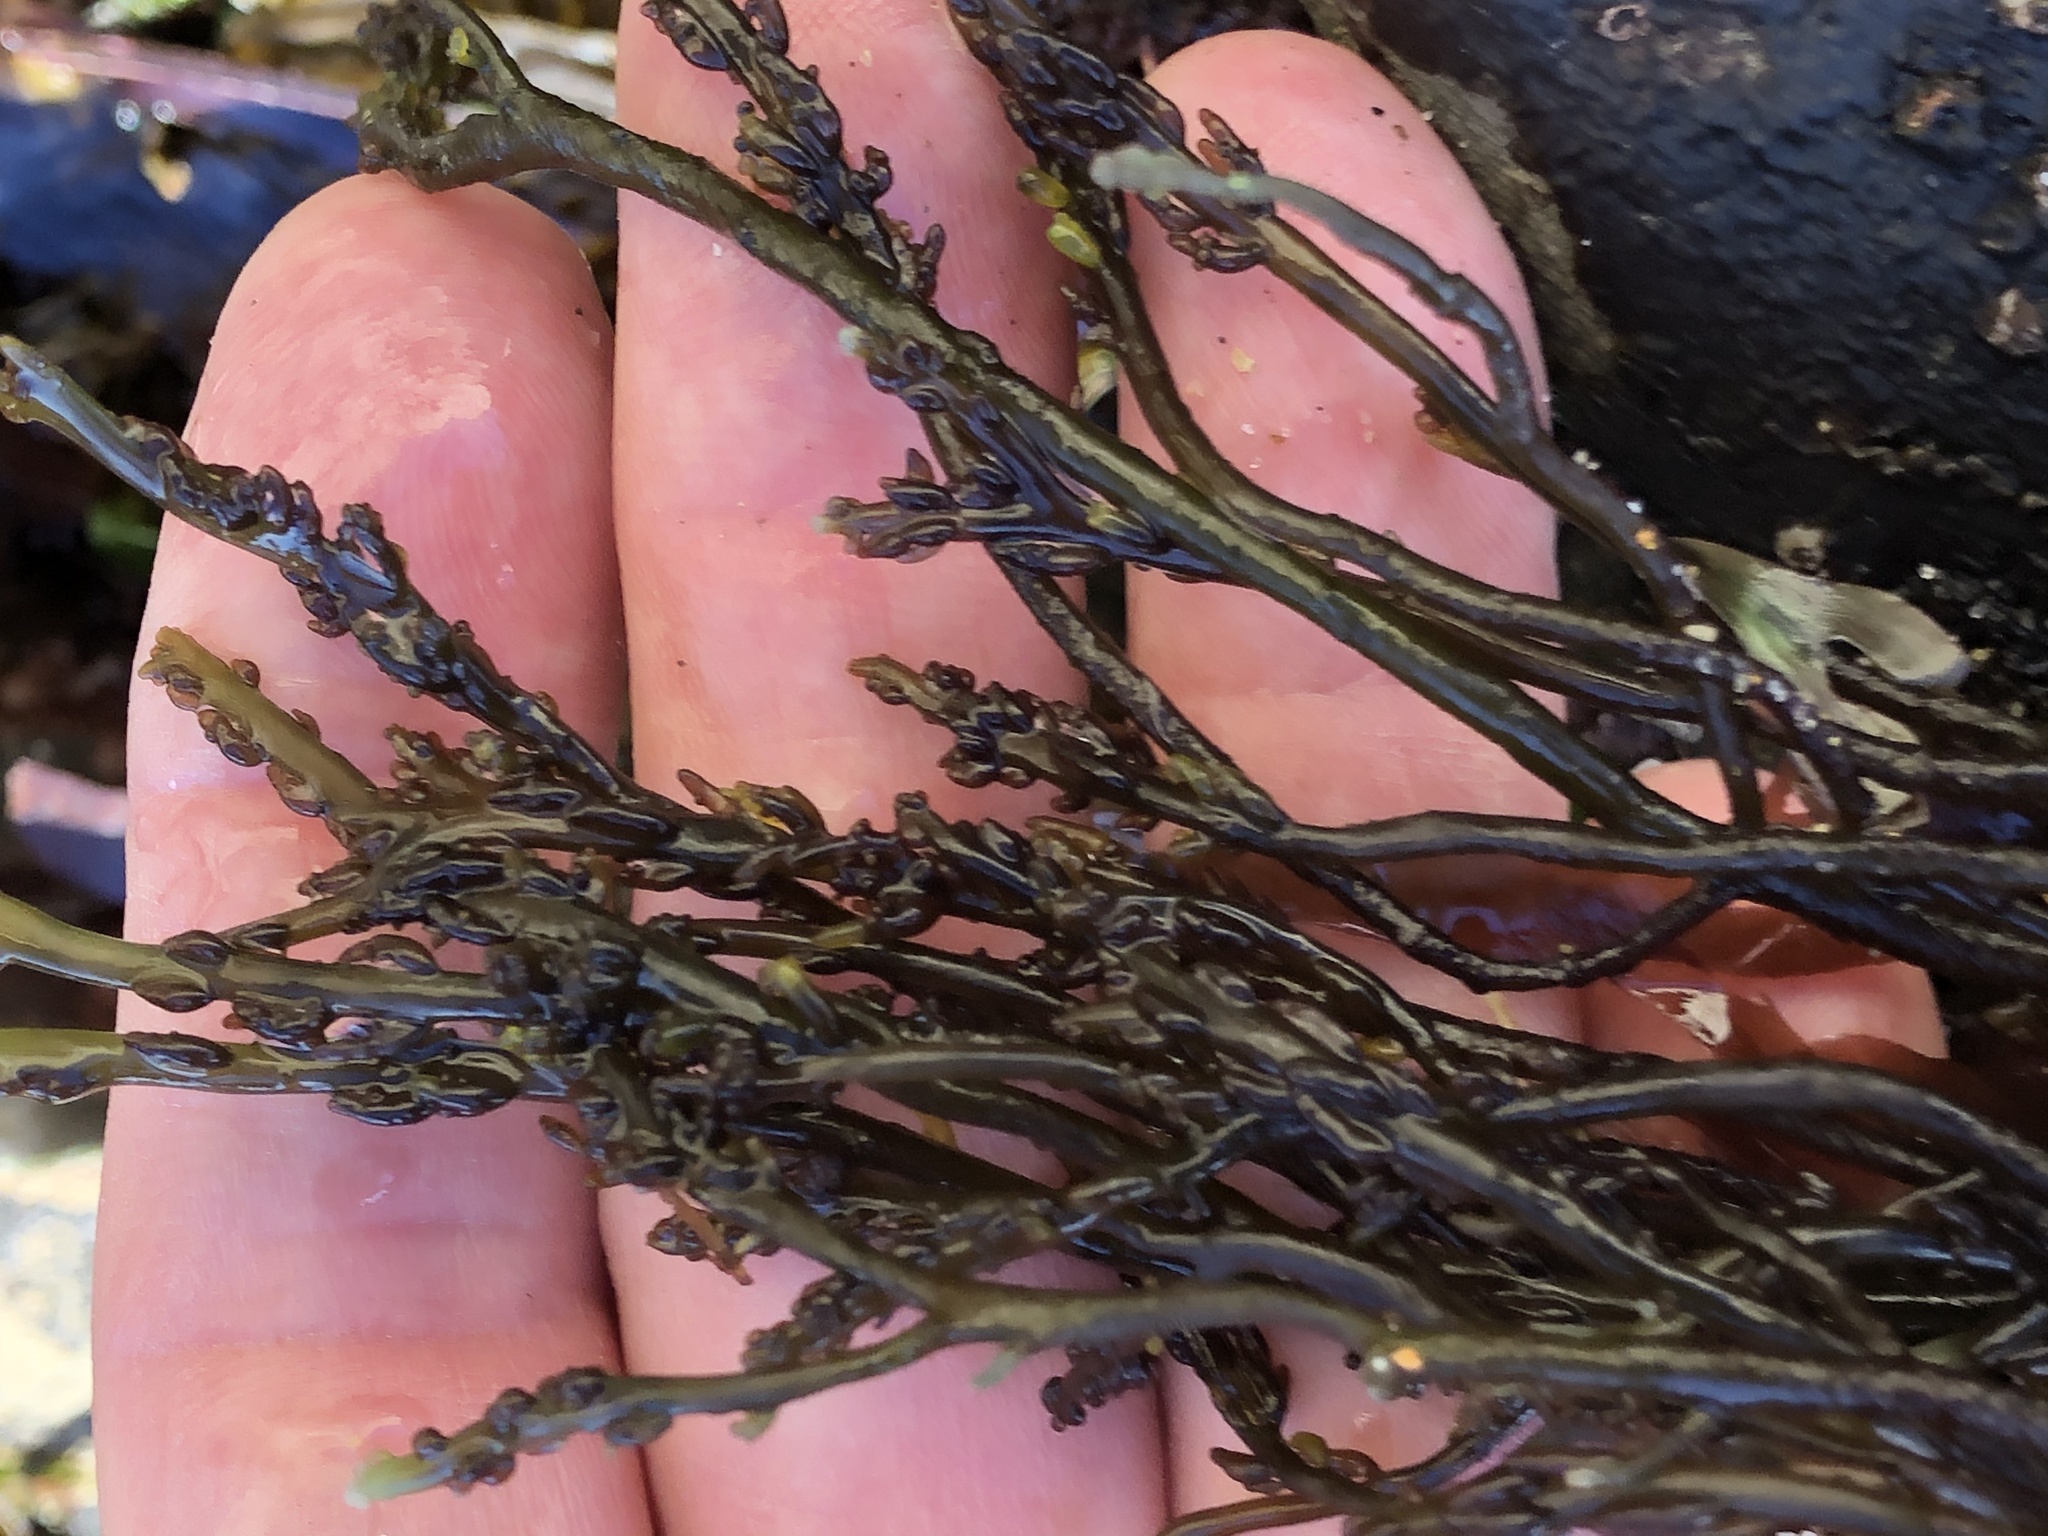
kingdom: Plantae
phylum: Rhodophyta
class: Florideophyceae
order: Rhodymeniales
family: Champiaceae
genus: Neogastroclonium
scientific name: Neogastroclonium subarticulatum
